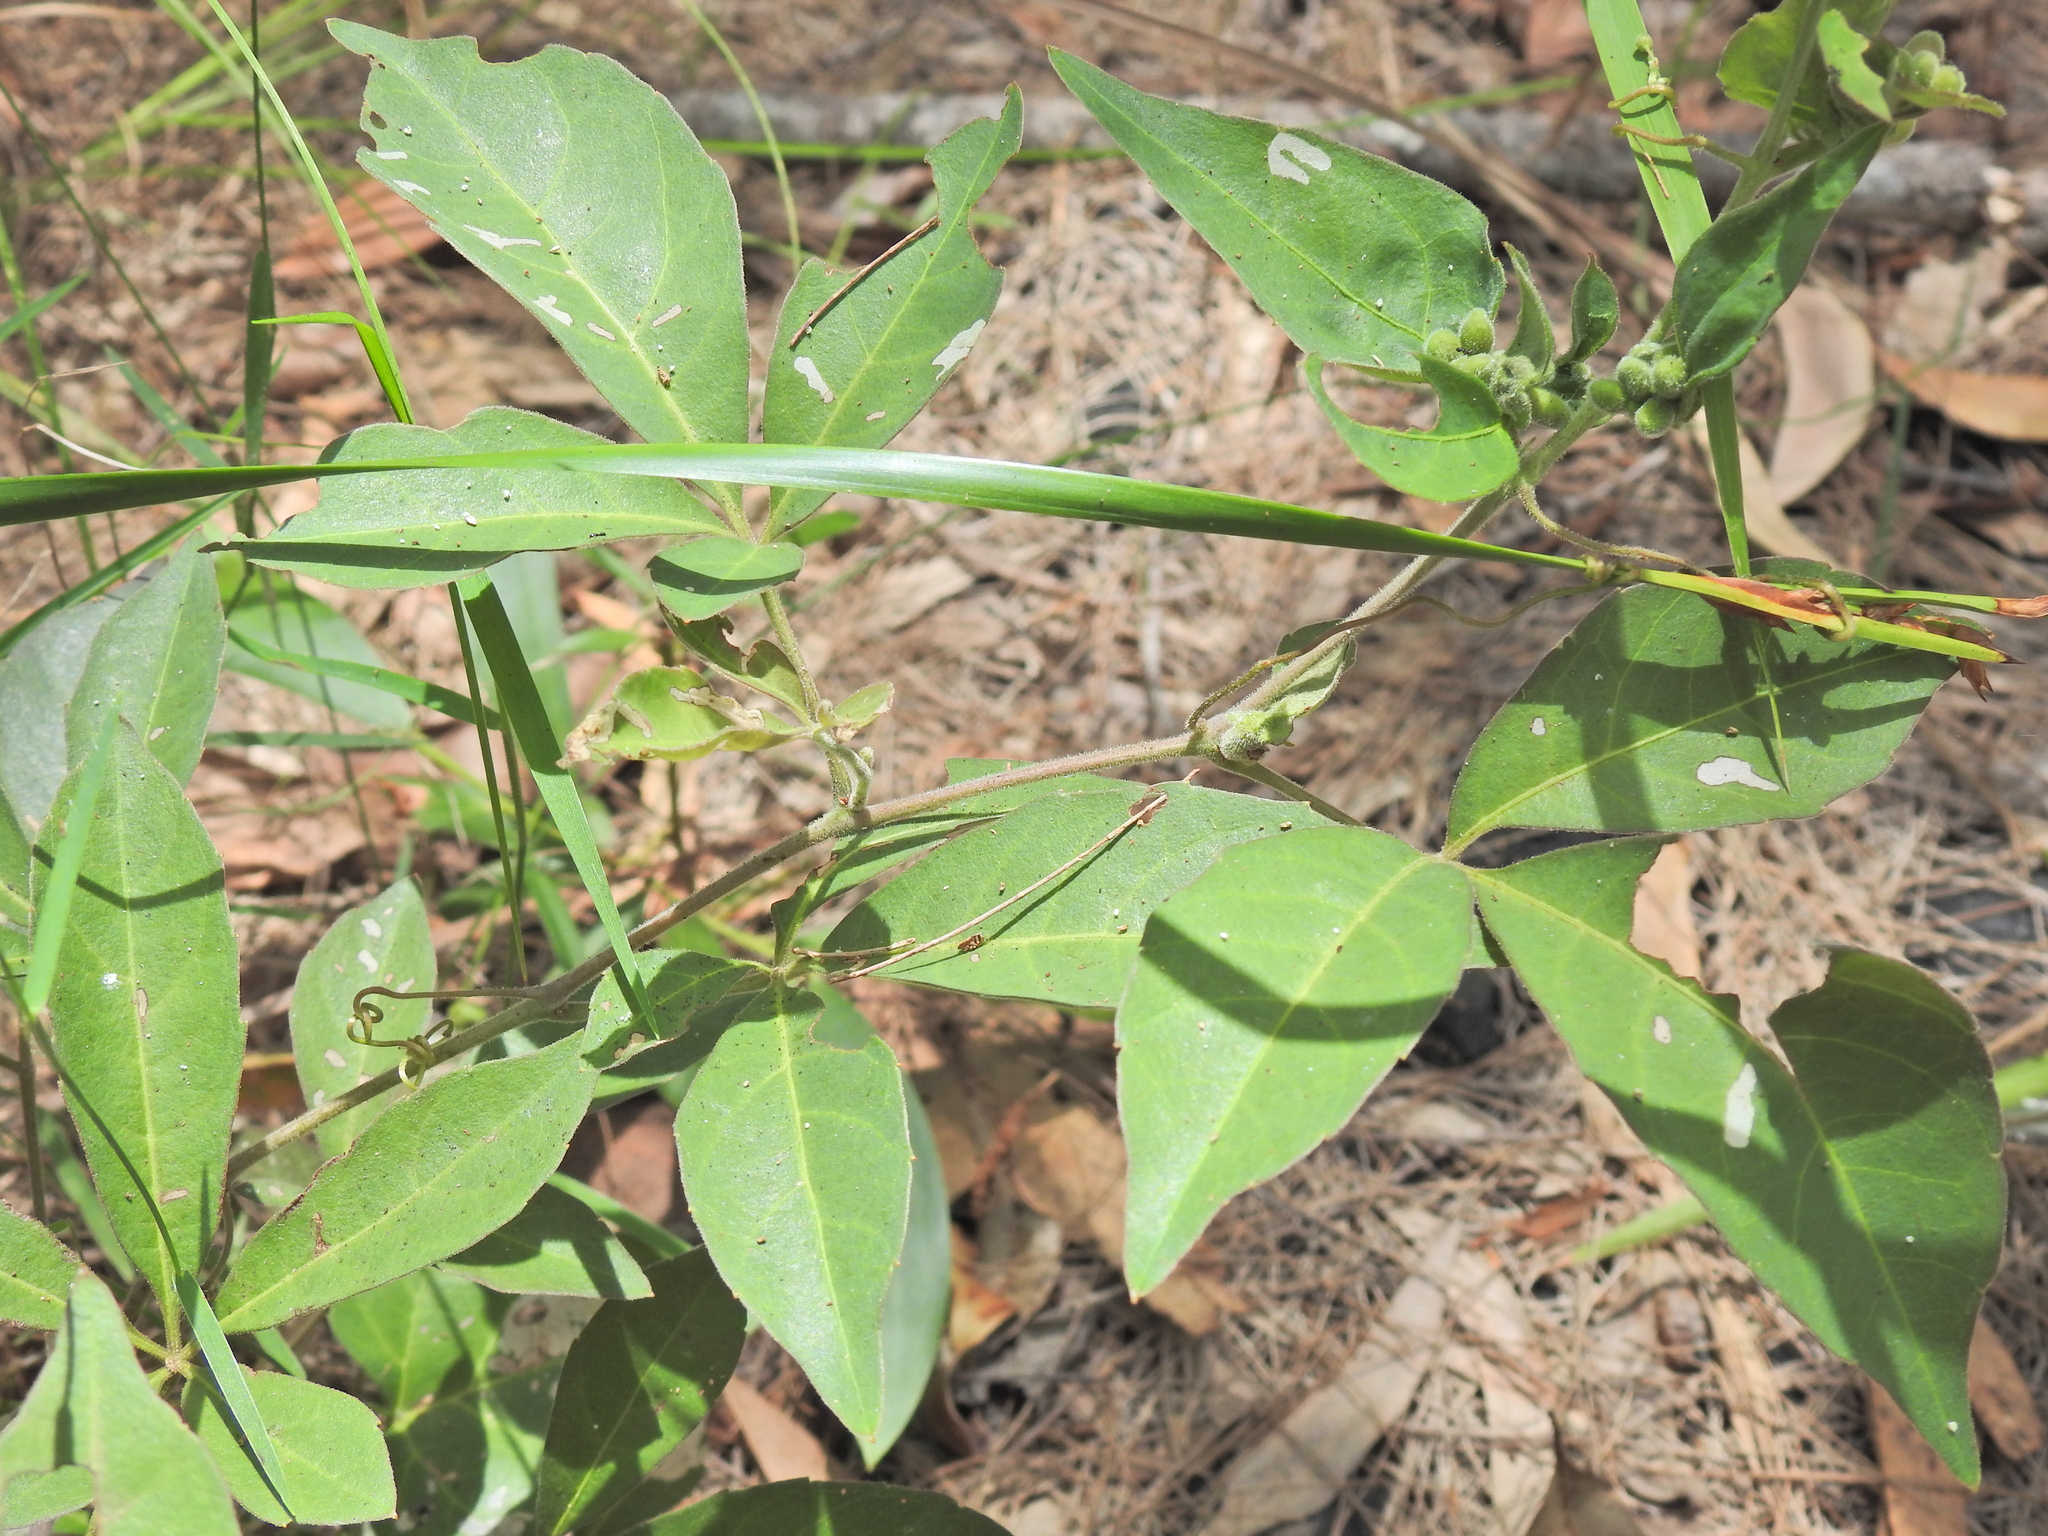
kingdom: Plantae
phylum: Tracheophyta
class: Magnoliopsida
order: Vitales
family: Vitaceae
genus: Clematicissus
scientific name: Clematicissus opaca
